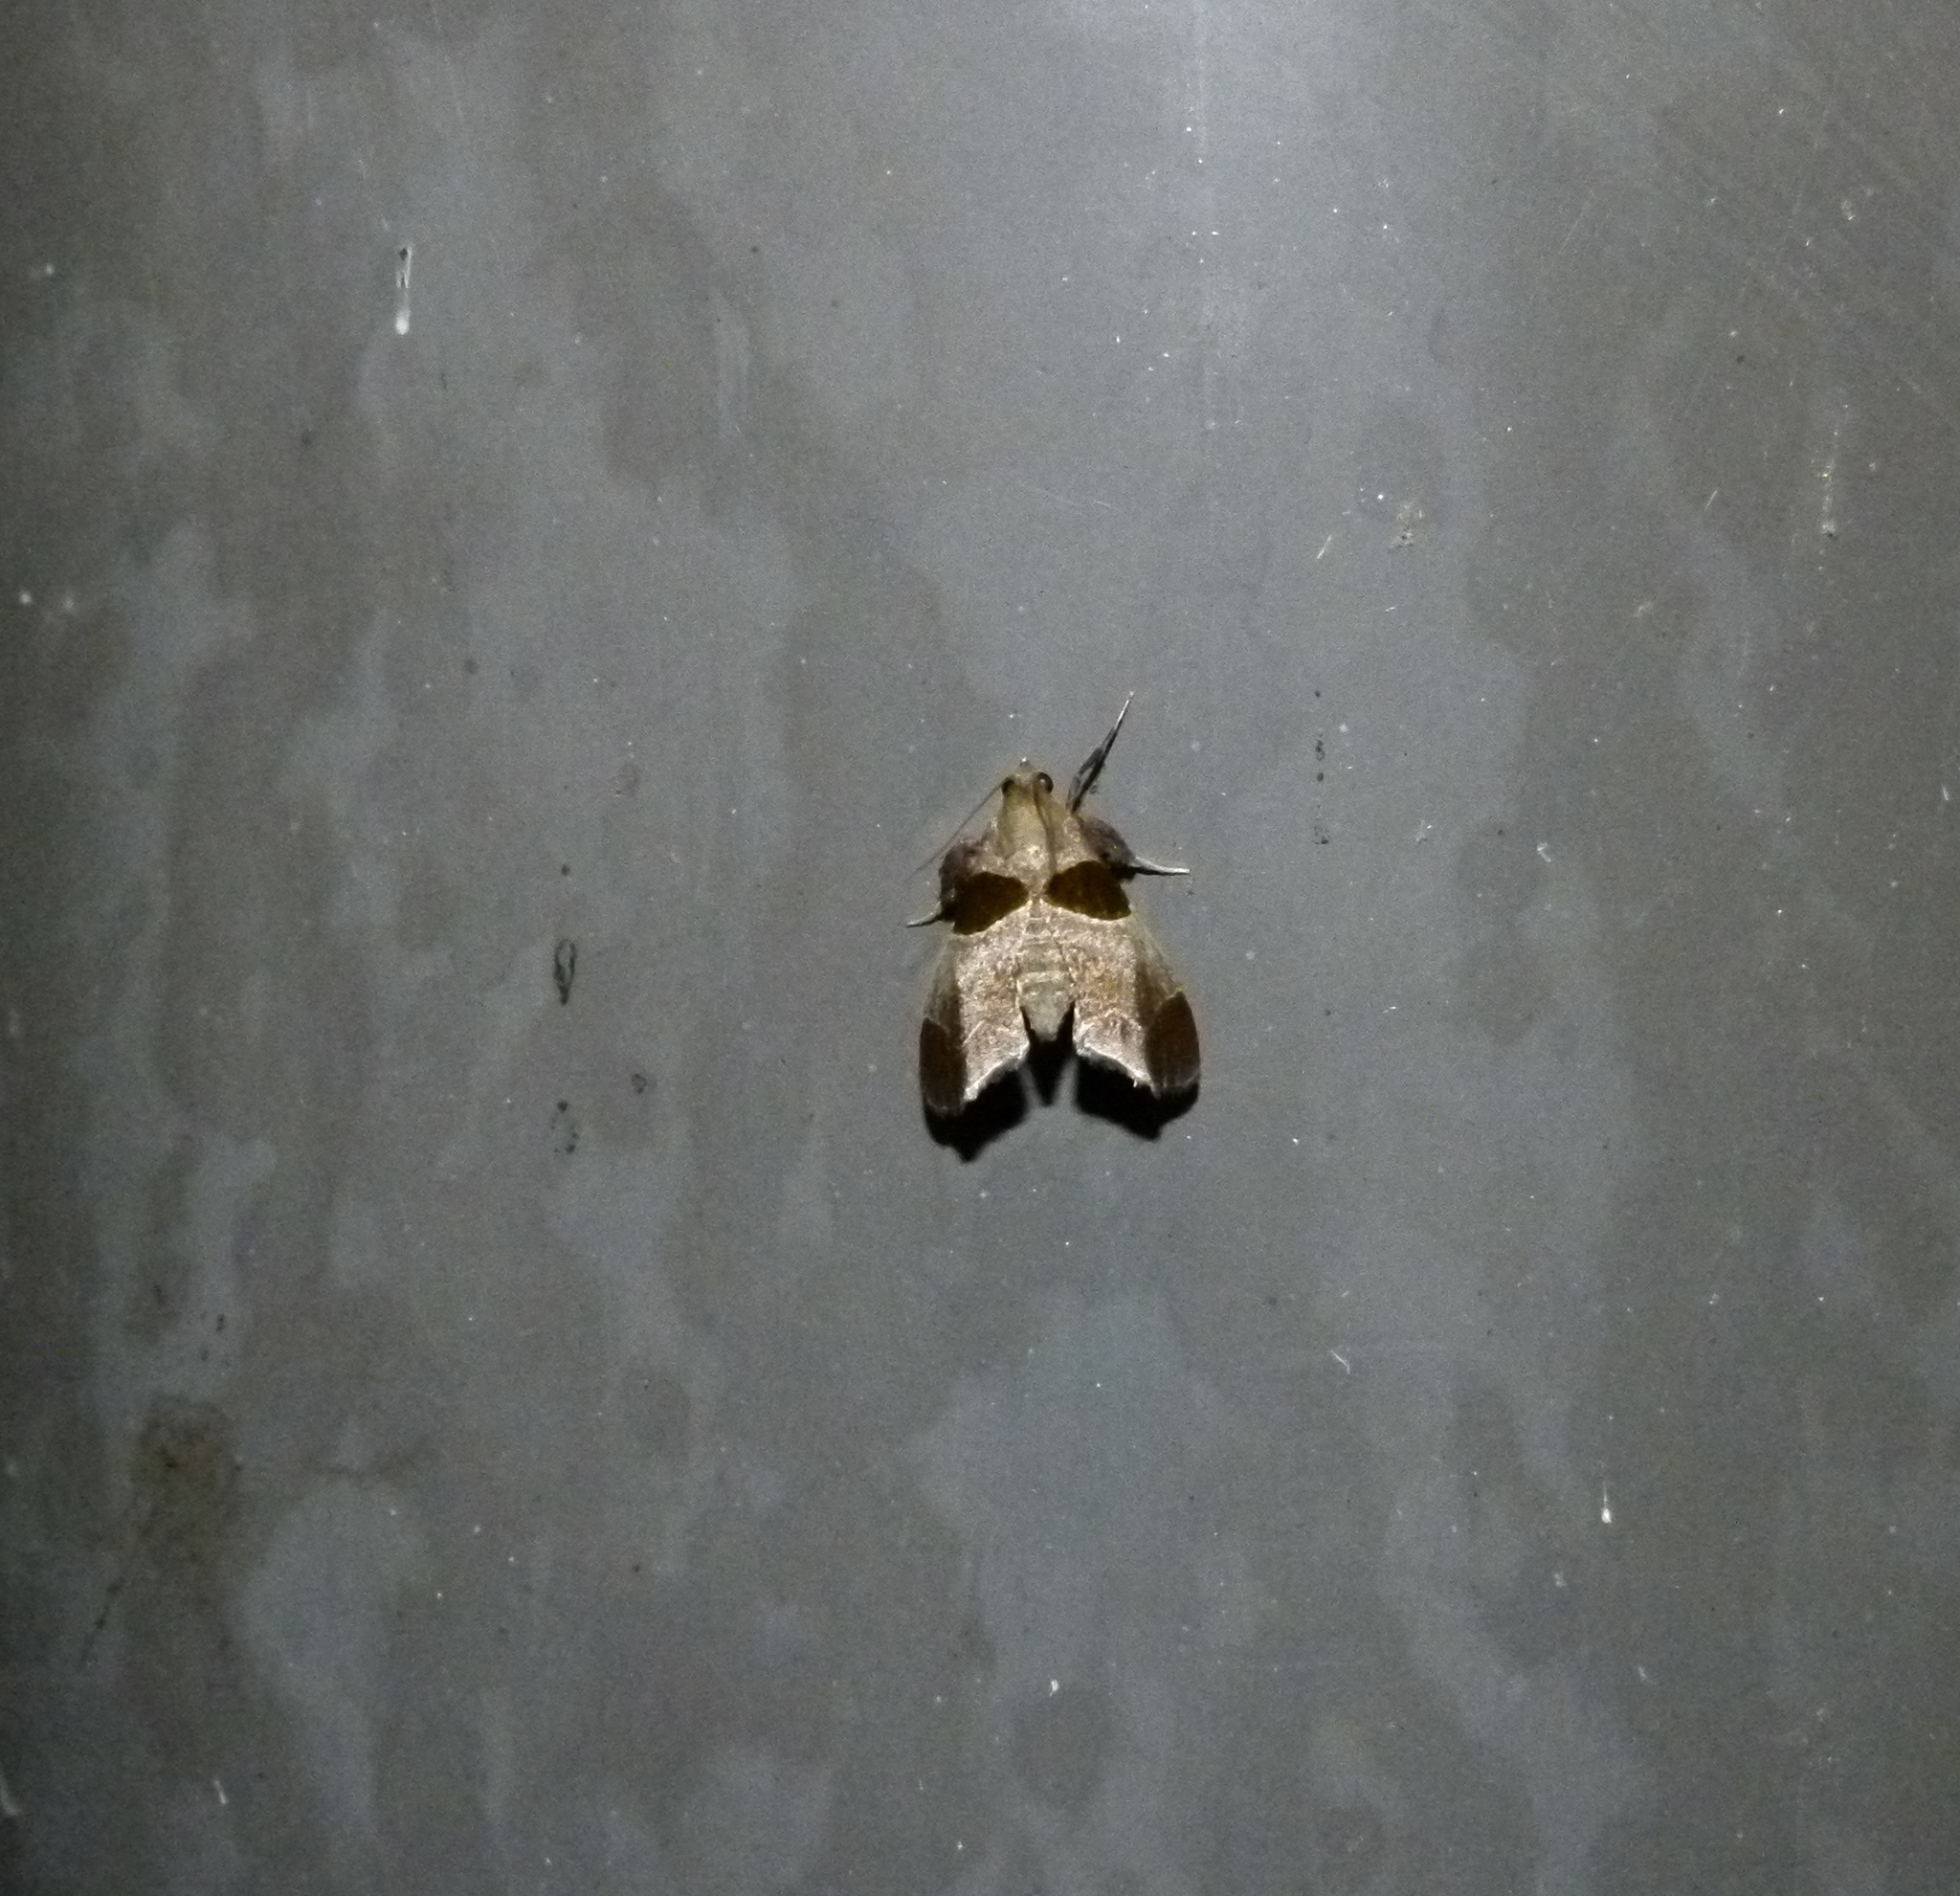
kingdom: Animalia
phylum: Arthropoda
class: Insecta
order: Lepidoptera
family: Pyralidae
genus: Tosale
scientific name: Tosale oviplagalis
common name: Dimorphic tosale moth
